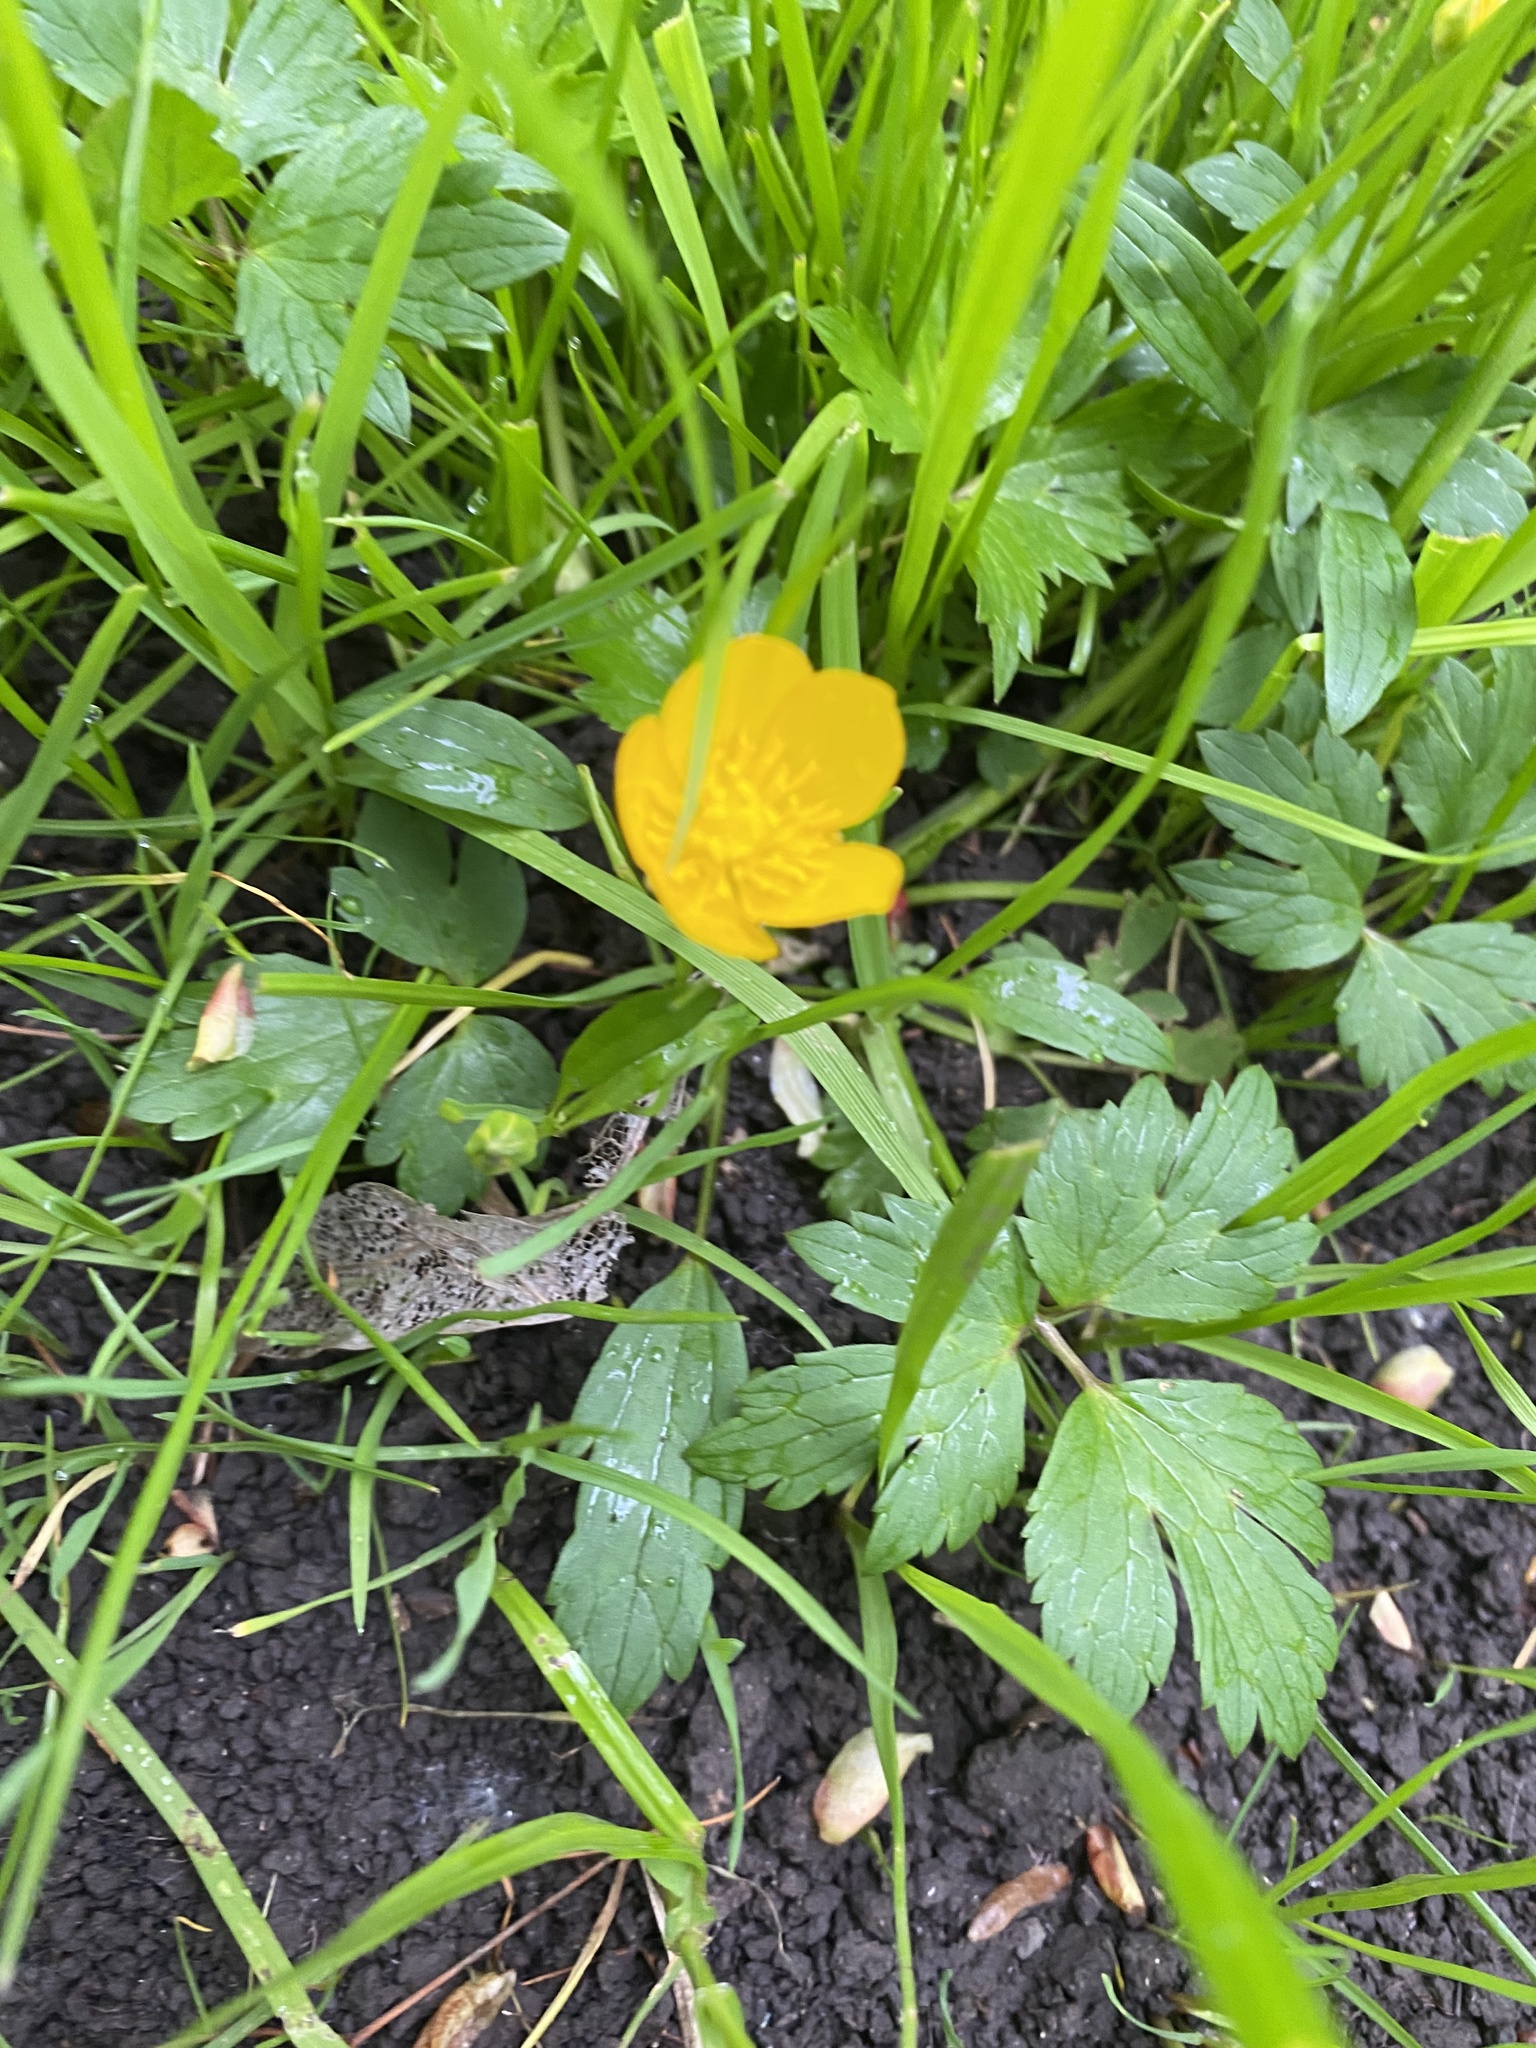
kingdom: Plantae
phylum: Tracheophyta
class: Magnoliopsida
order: Ranunculales
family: Ranunculaceae
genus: Ranunculus
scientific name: Ranunculus repens
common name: Creeping buttercup
